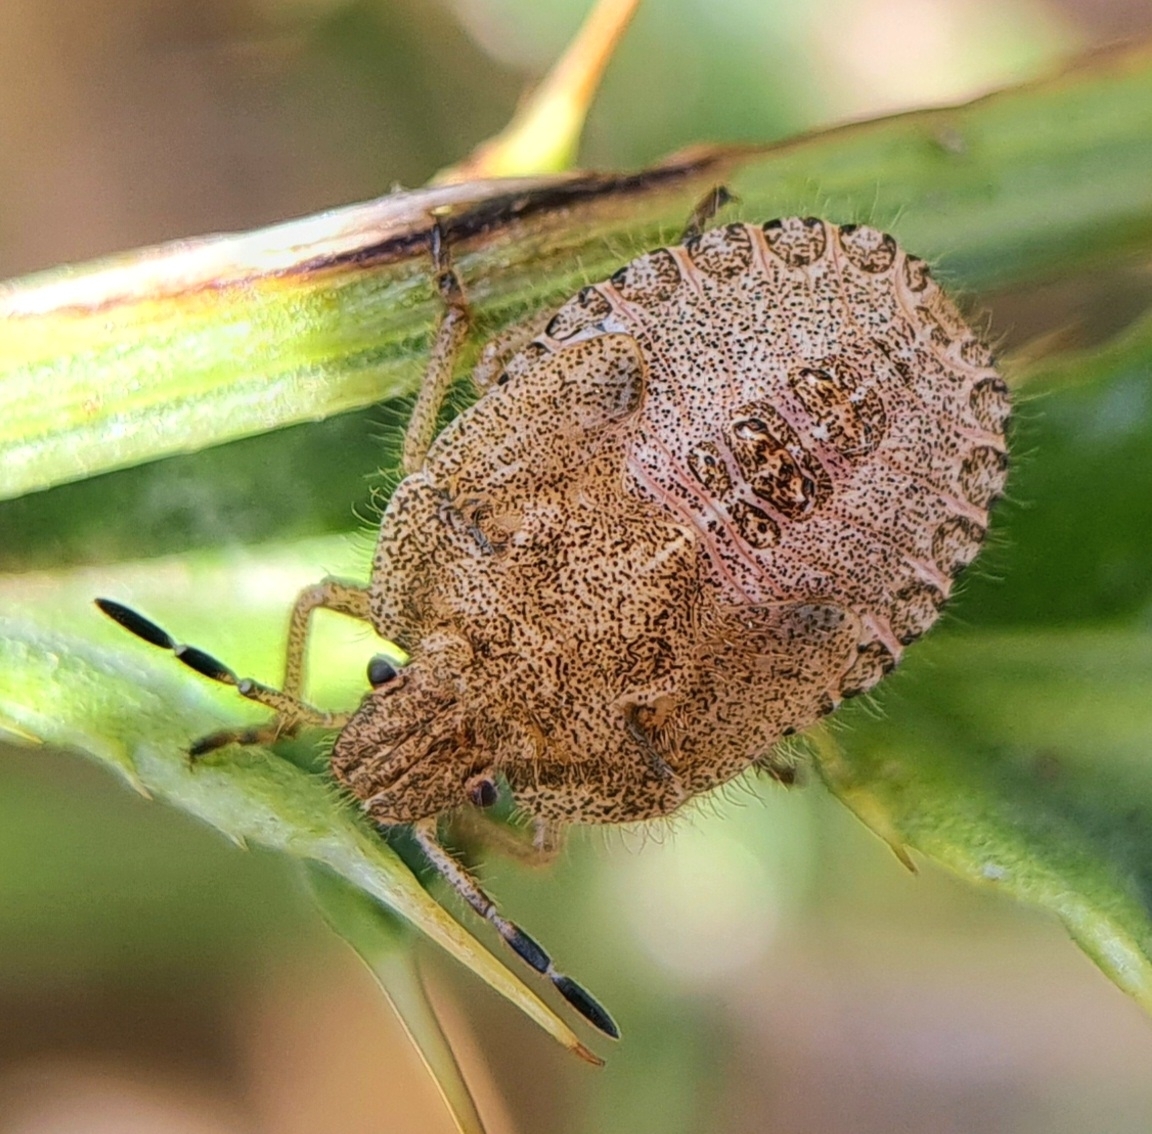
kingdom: Animalia
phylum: Arthropoda
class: Insecta
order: Hemiptera
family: Pentatomidae
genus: Dolycoris
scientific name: Dolycoris baccarum
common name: Sloe bug
